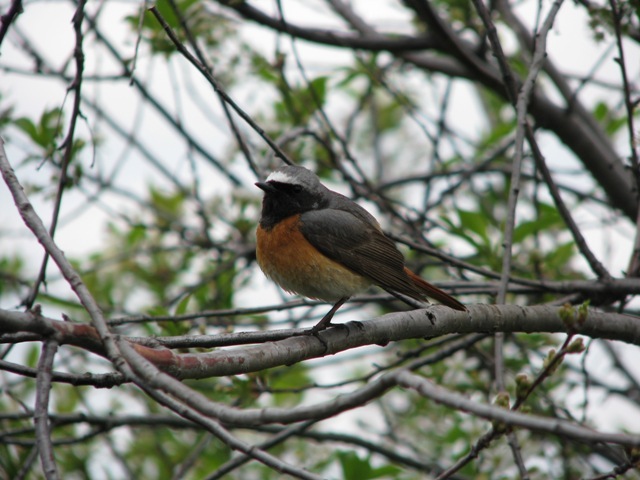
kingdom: Animalia
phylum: Chordata
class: Aves
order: Passeriformes
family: Muscicapidae
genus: Phoenicurus
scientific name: Phoenicurus phoenicurus
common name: Common redstart
